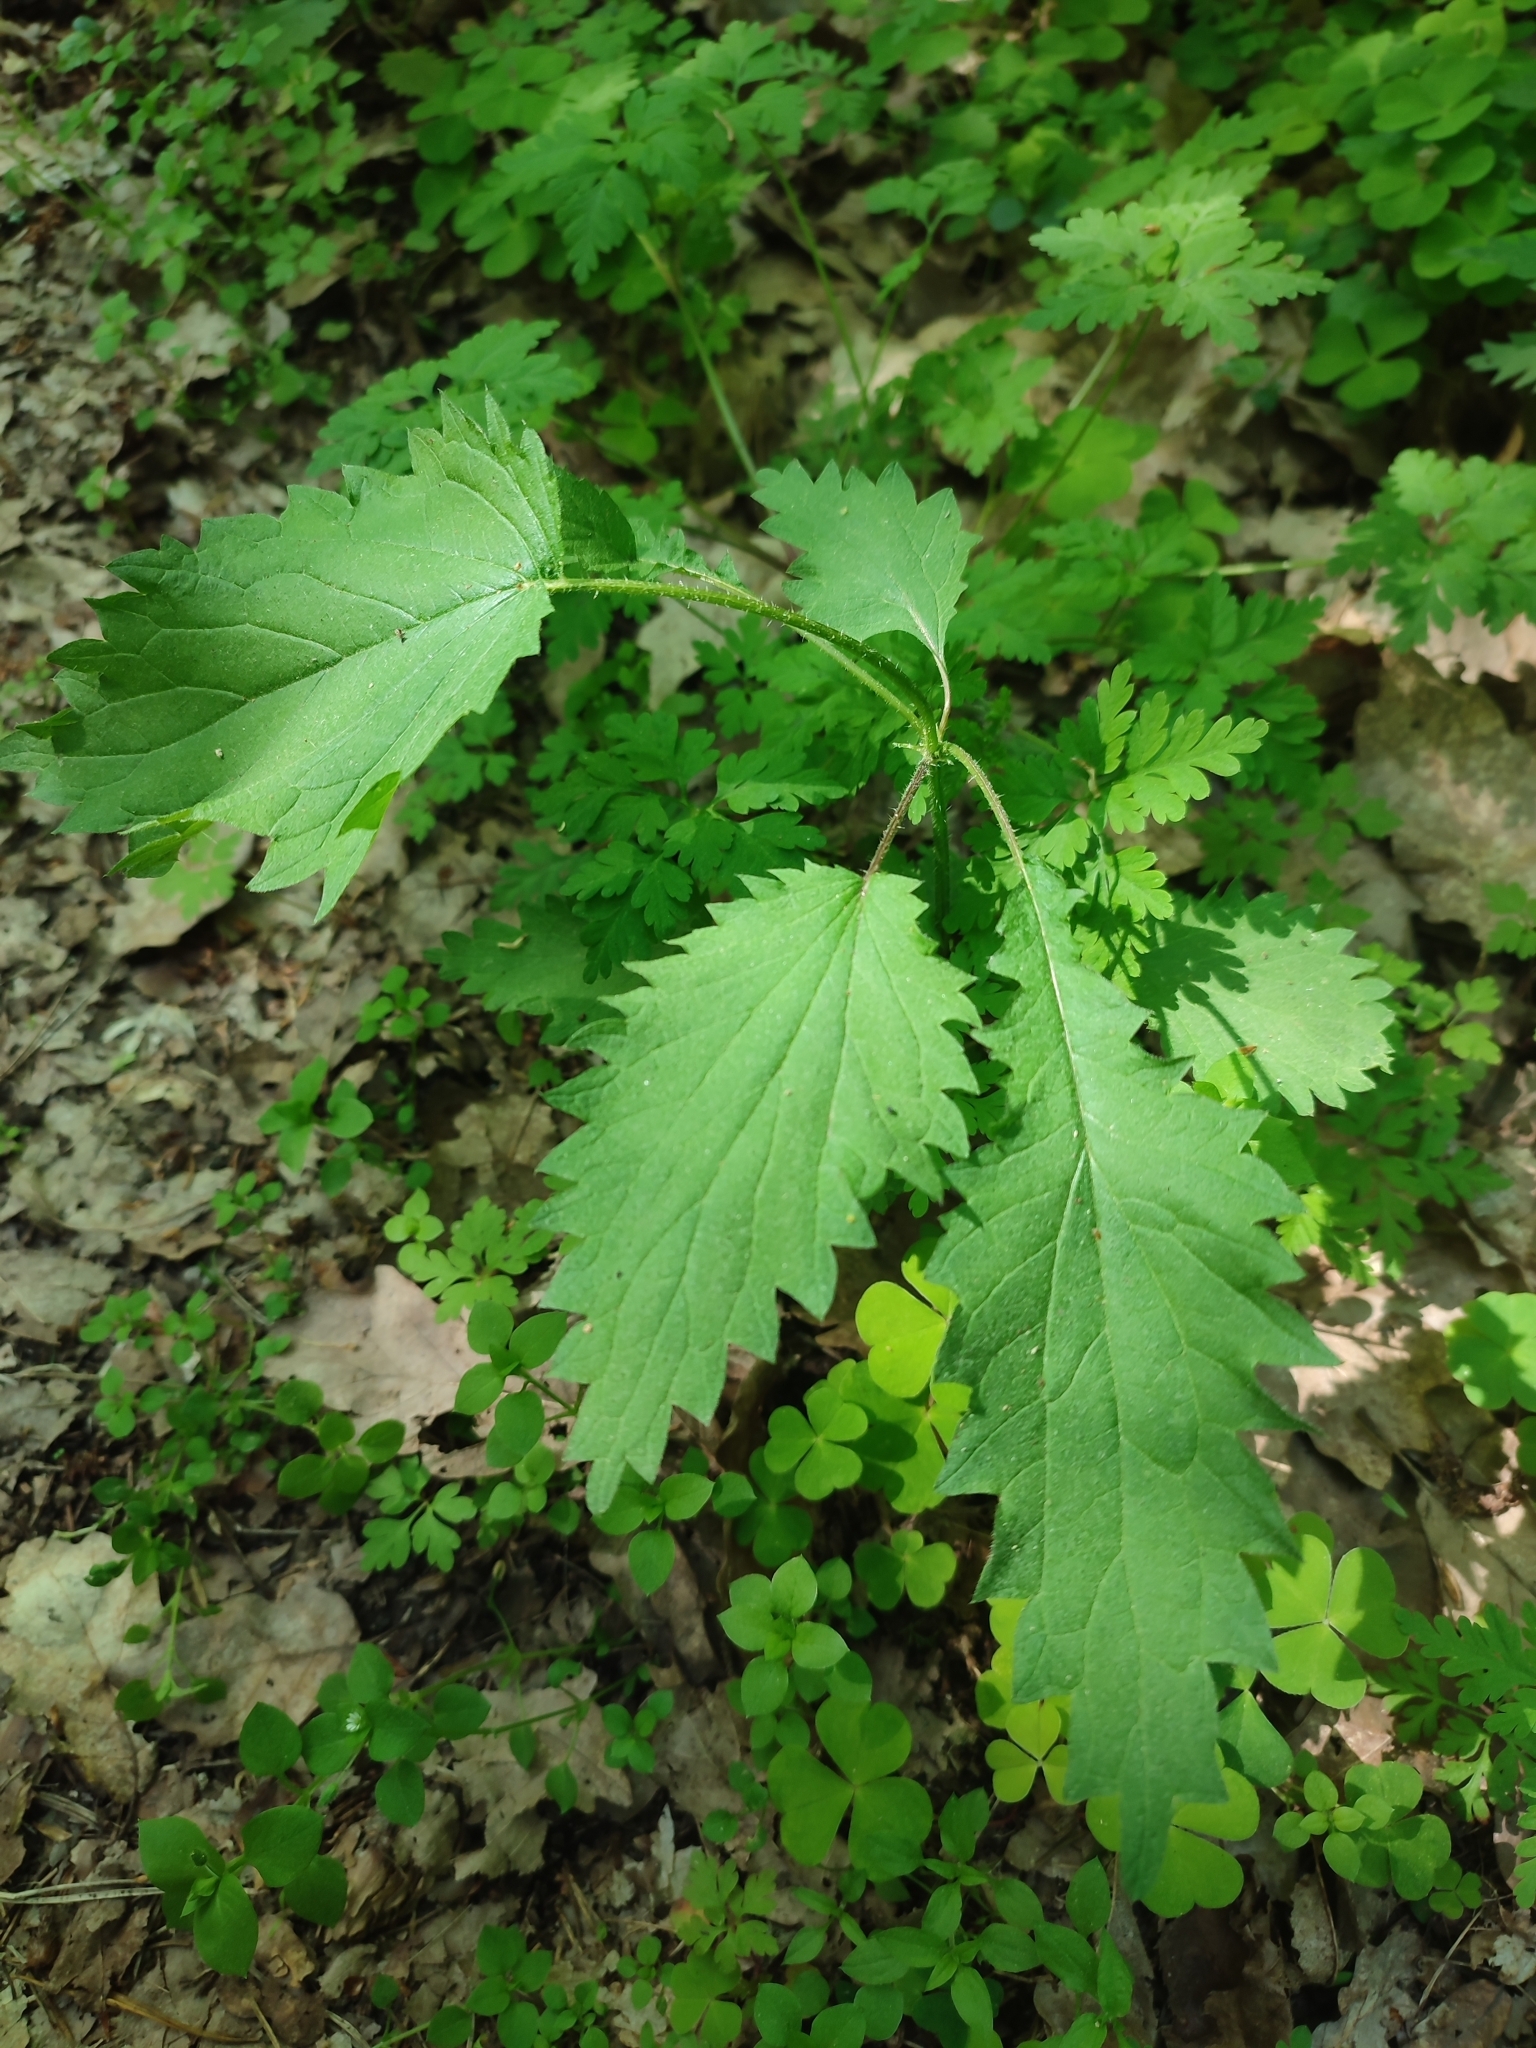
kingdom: Plantae
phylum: Tracheophyta
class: Magnoliopsida
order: Rosales
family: Urticaceae
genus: Urtica
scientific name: Urtica dioica
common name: Common nettle
